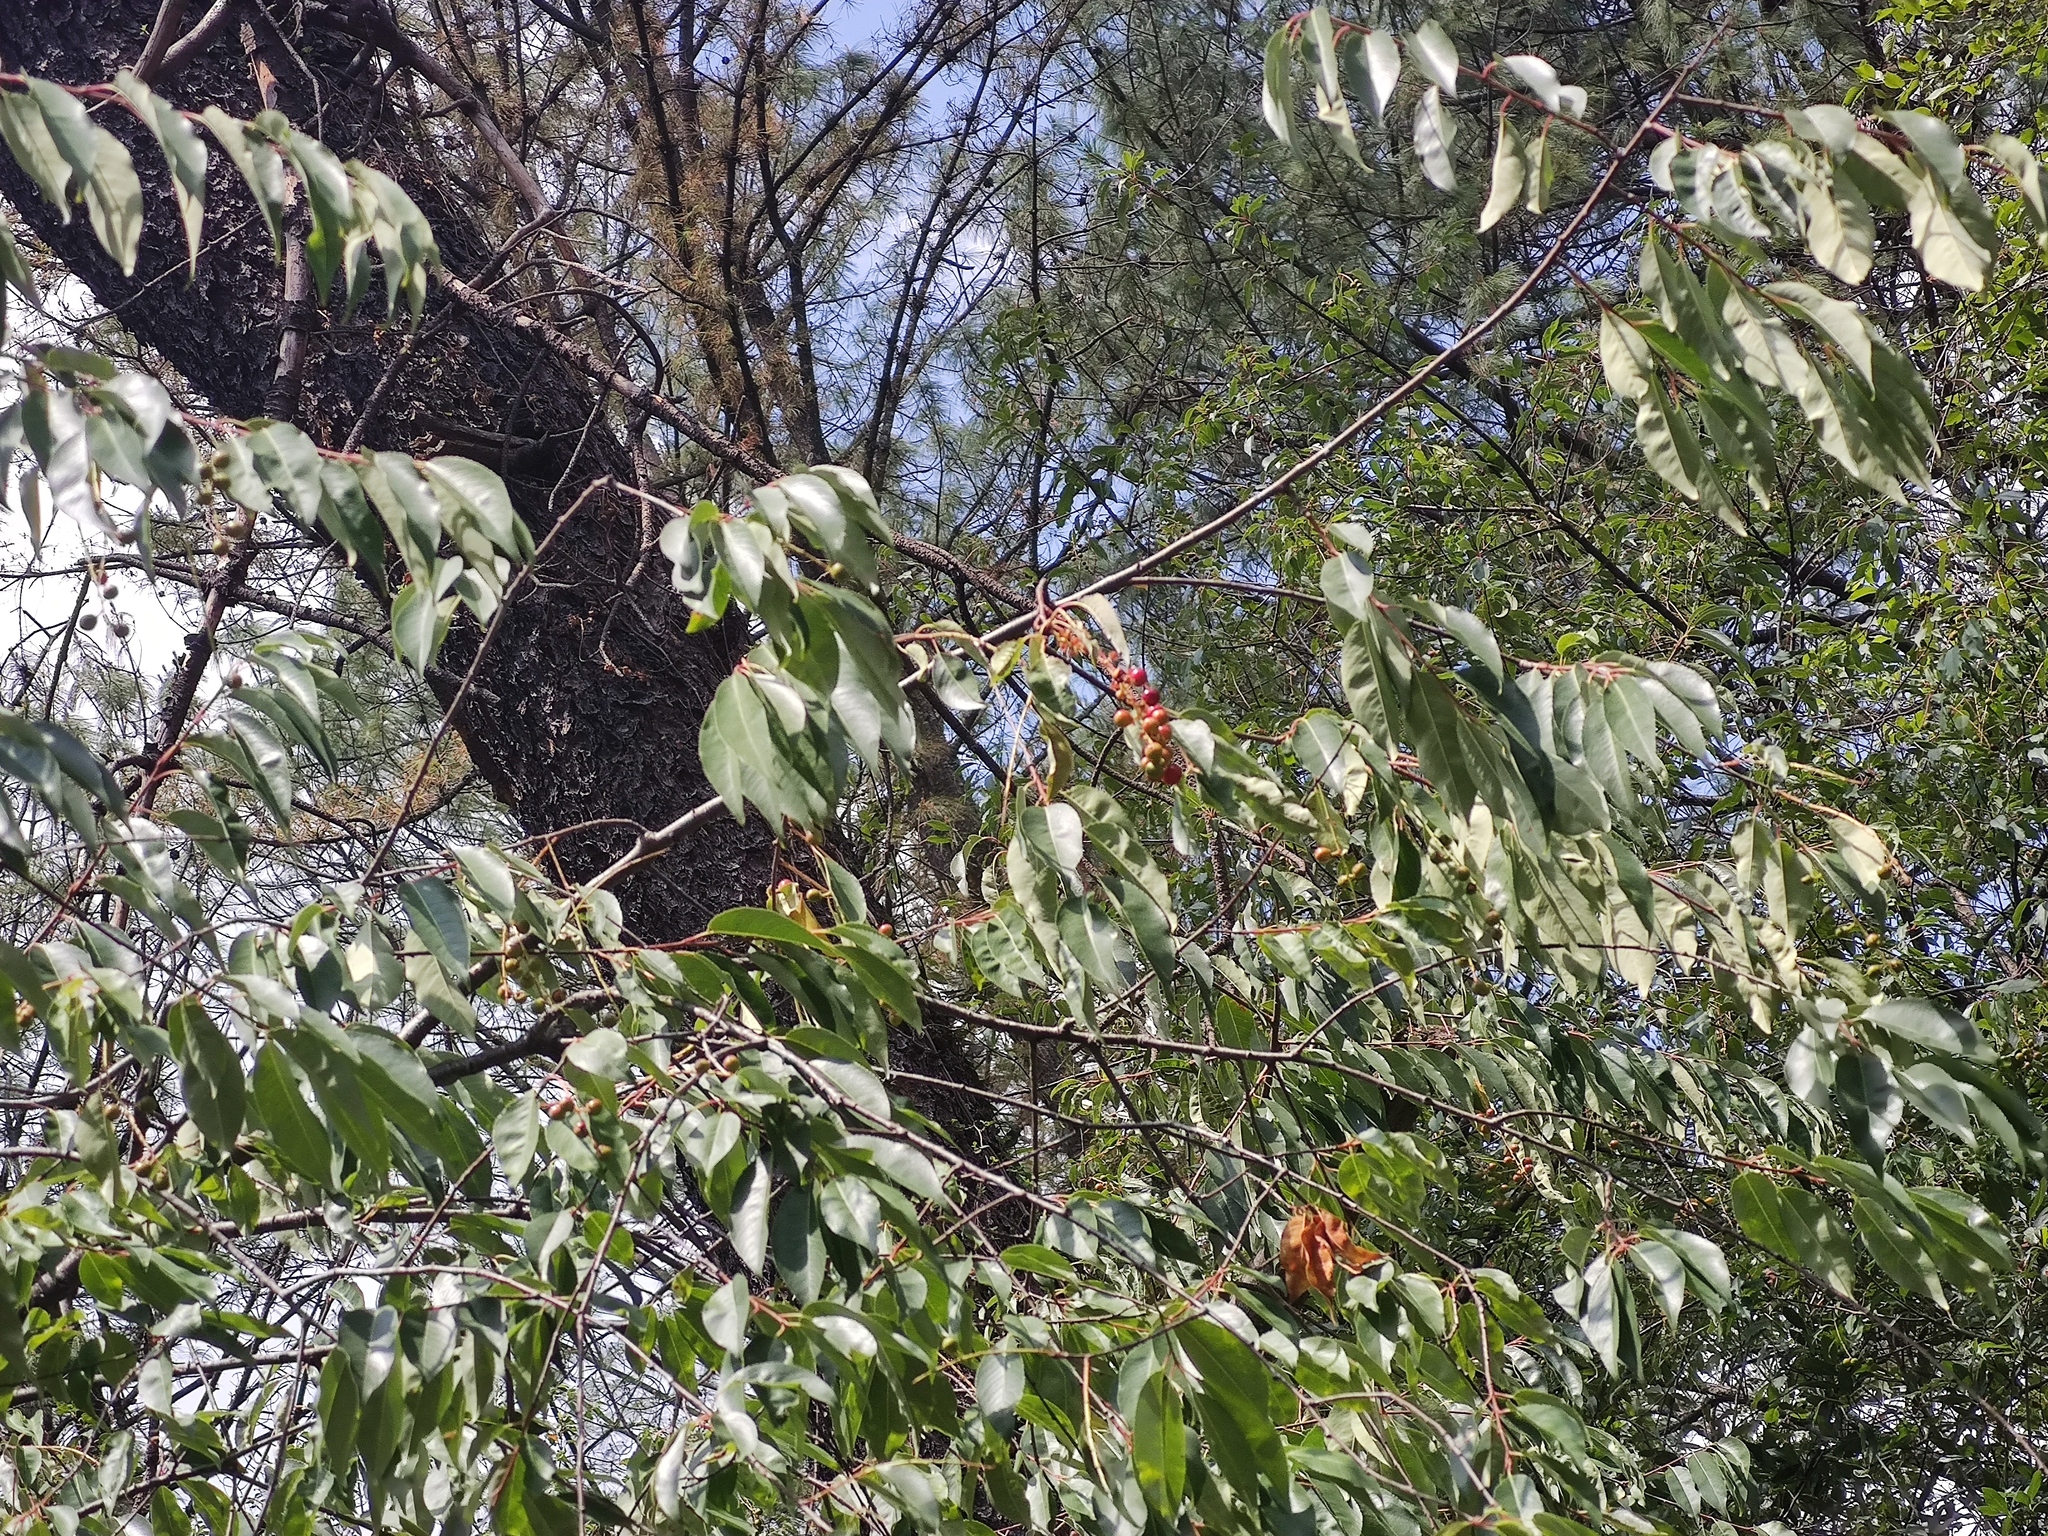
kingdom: Plantae
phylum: Tracheophyta
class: Magnoliopsida
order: Rosales
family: Rosaceae
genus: Prunus
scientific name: Prunus serotina
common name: Black cherry
